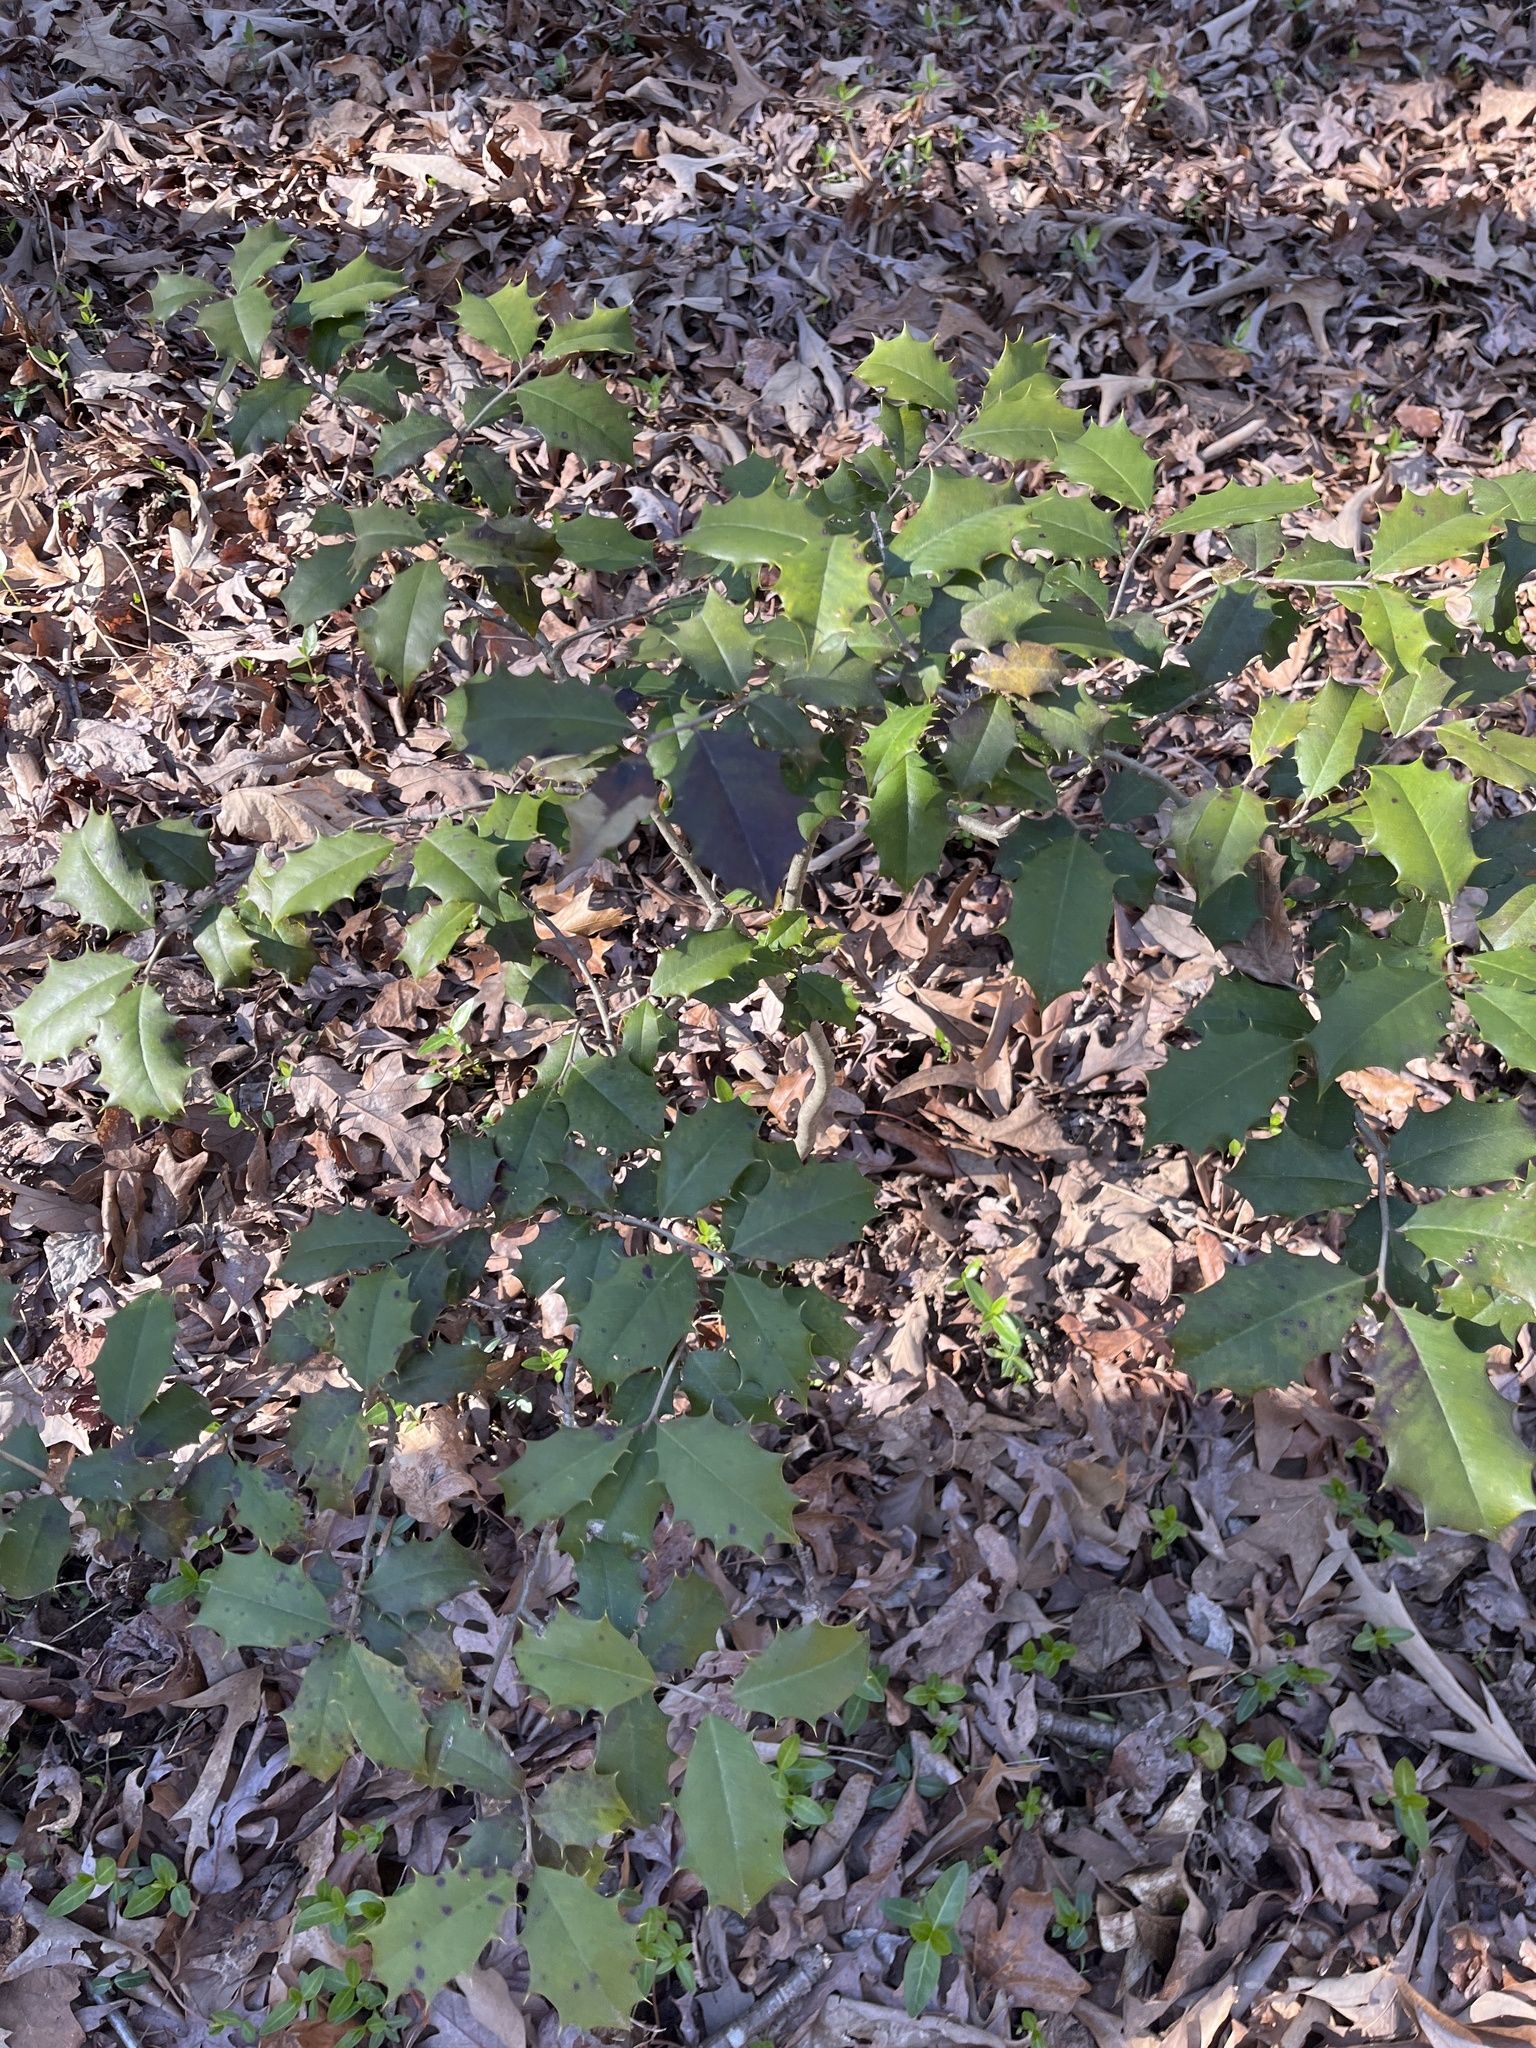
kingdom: Plantae
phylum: Tracheophyta
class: Magnoliopsida
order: Aquifoliales
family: Aquifoliaceae
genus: Ilex
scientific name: Ilex opaca
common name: American holly
